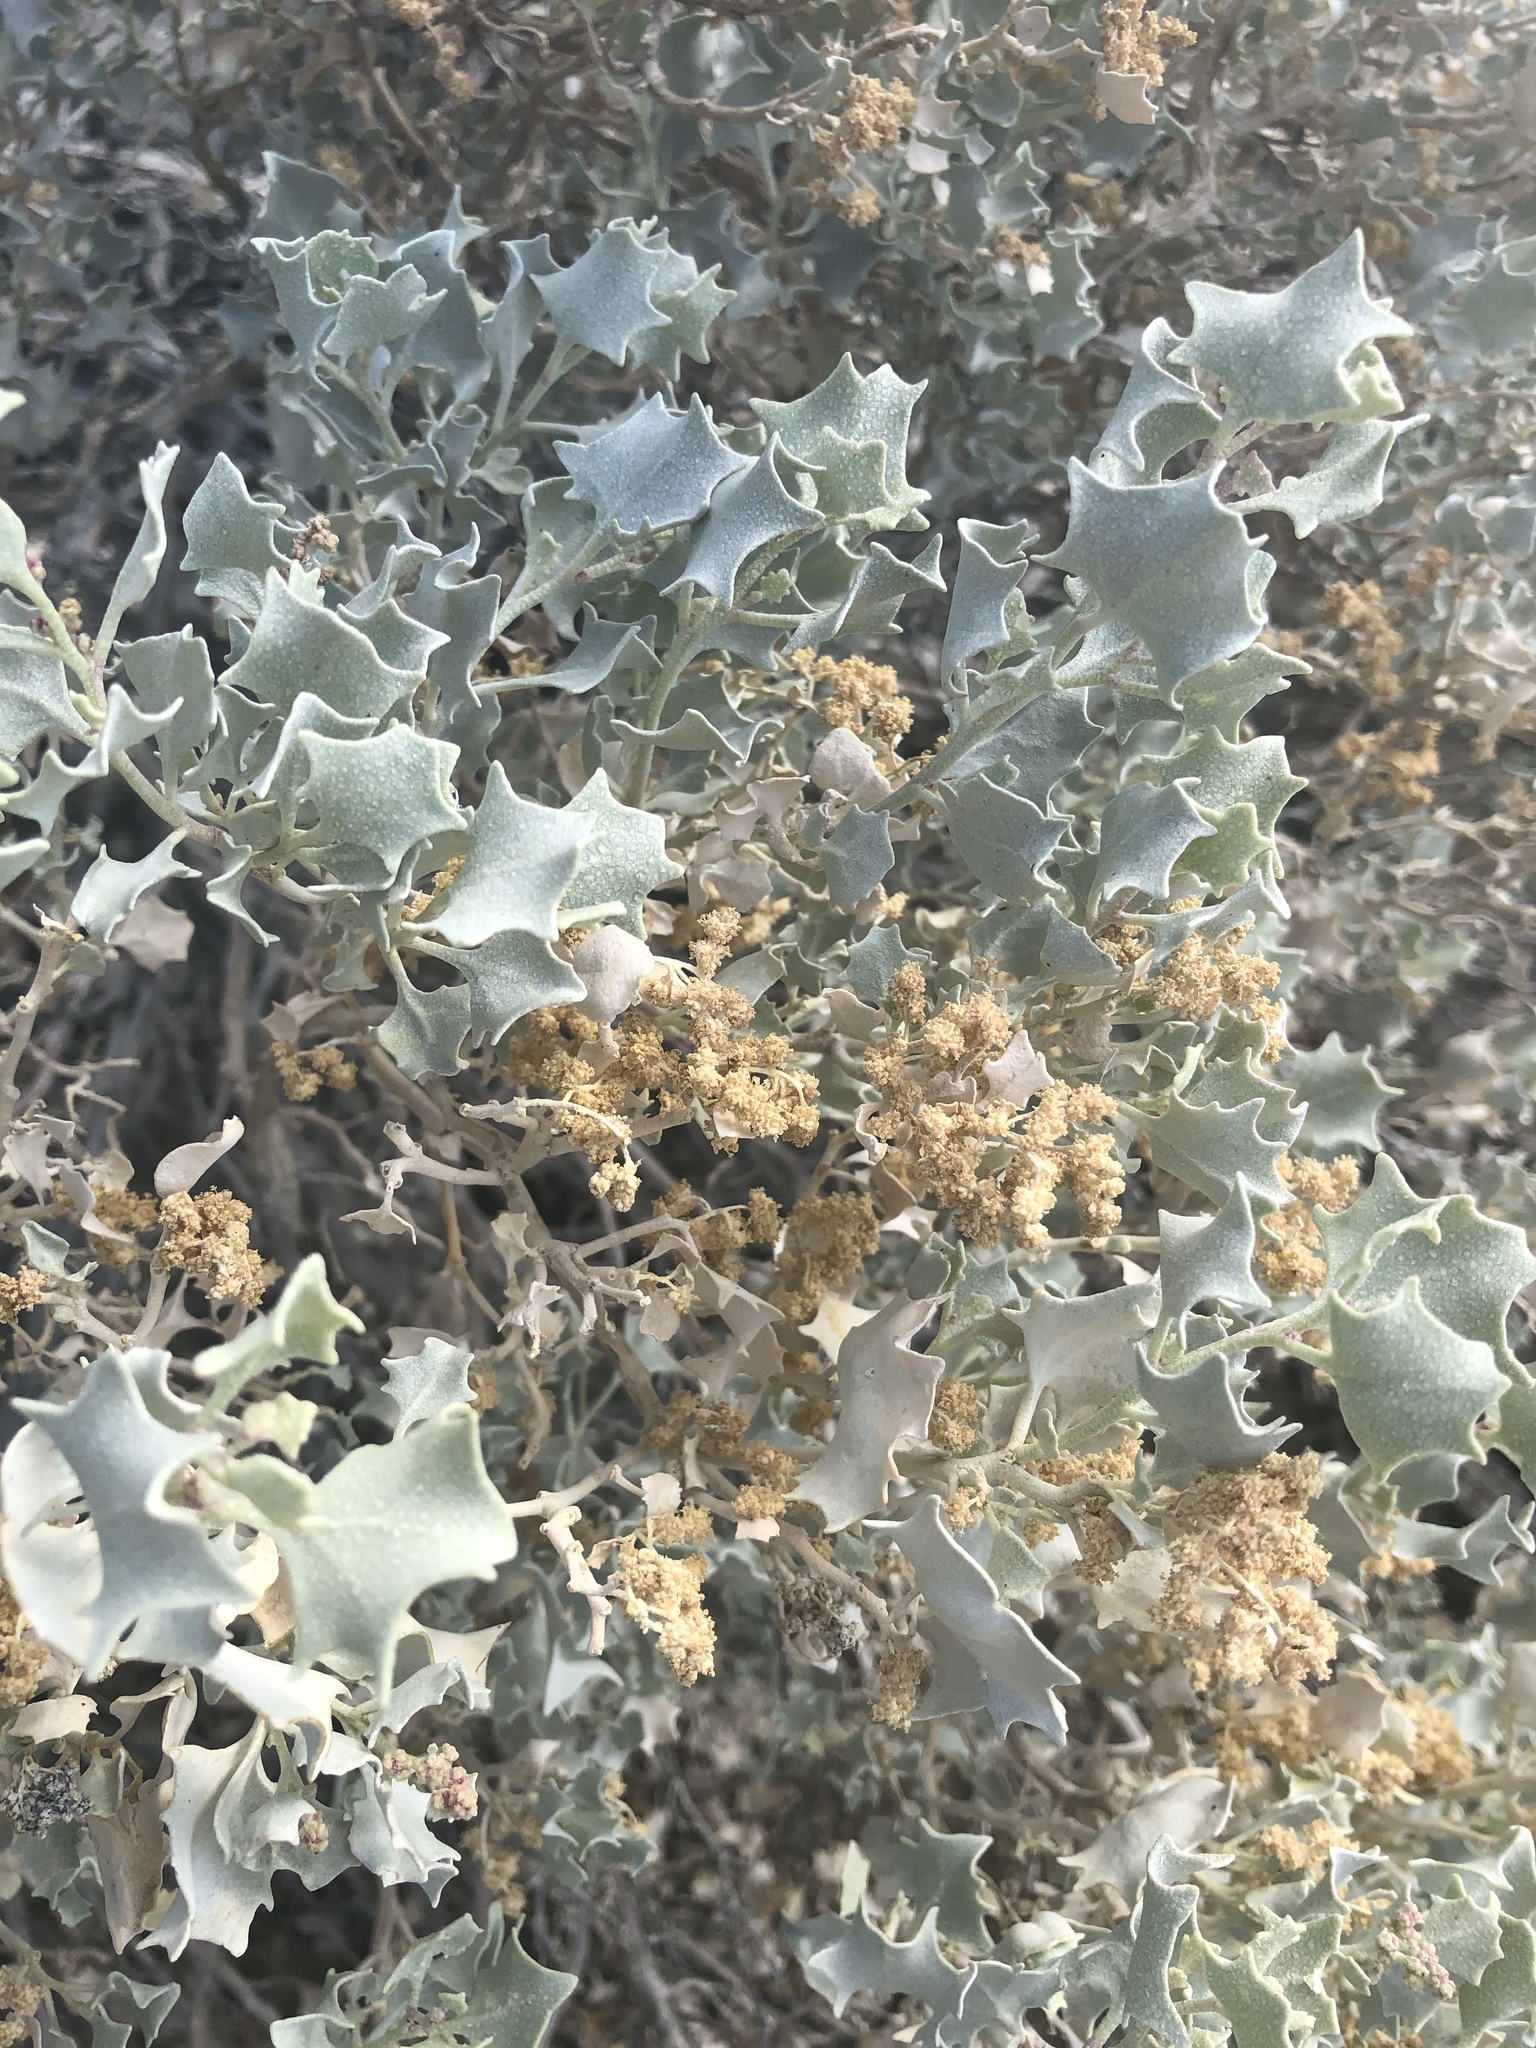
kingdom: Plantae
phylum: Tracheophyta
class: Magnoliopsida
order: Caryophyllales
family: Amaranthaceae
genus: Atriplex
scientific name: Atriplex hymenelytra
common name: Desert-holly
